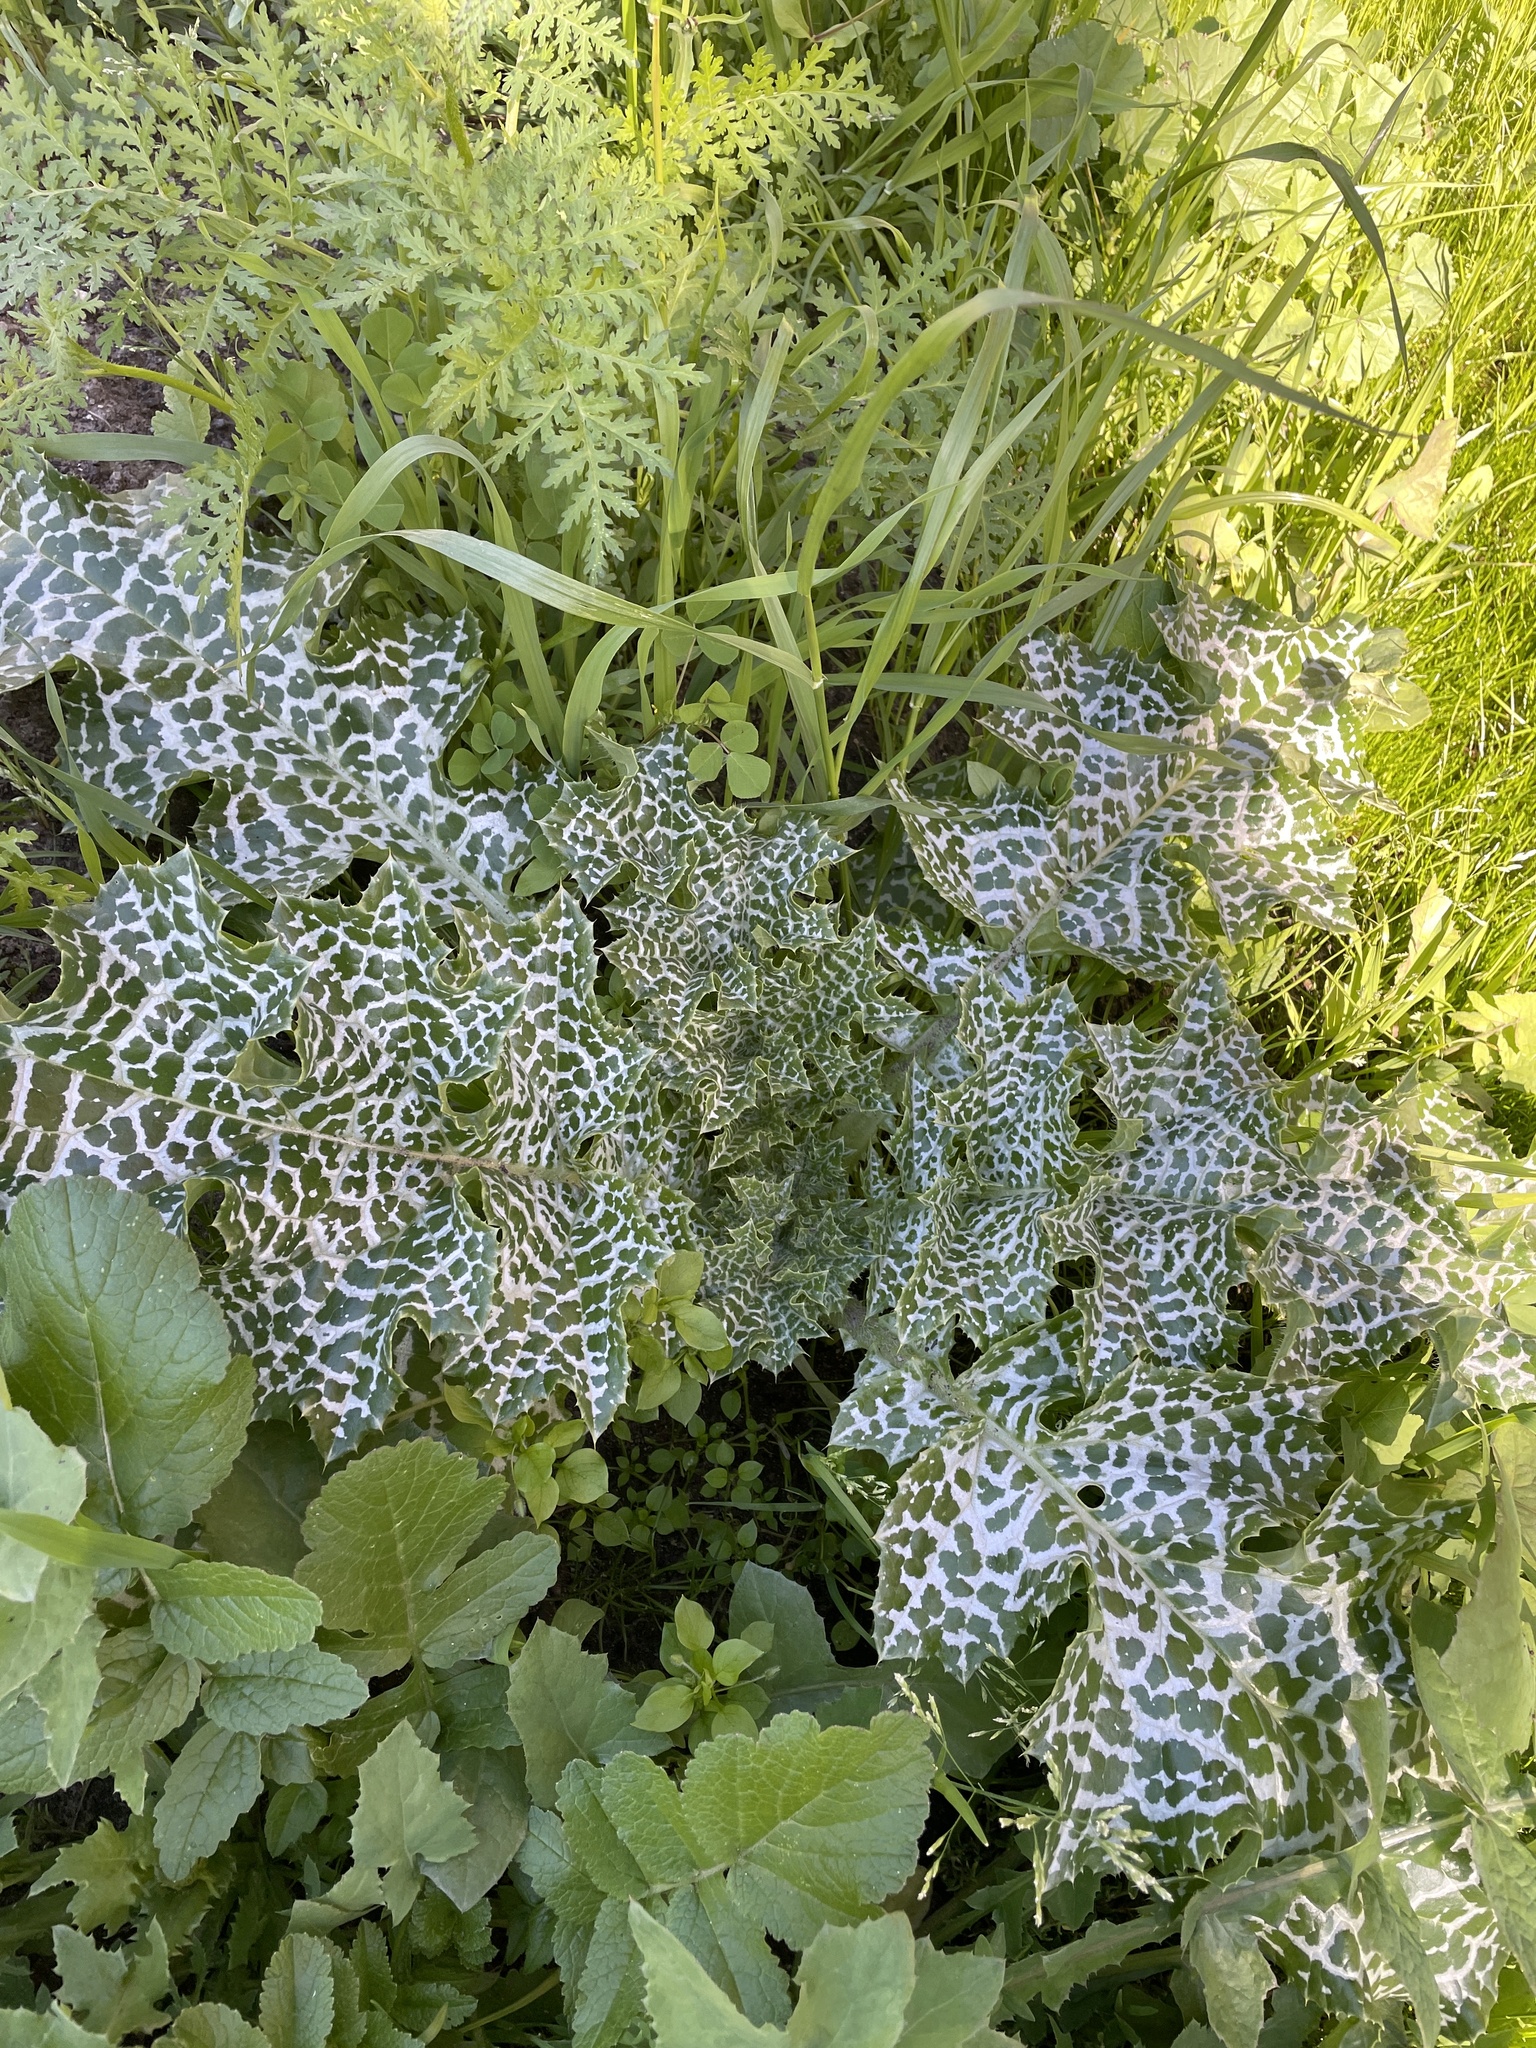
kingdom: Plantae
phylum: Tracheophyta
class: Magnoliopsida
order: Asterales
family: Asteraceae
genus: Silybum
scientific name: Silybum marianum
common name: Milk thistle
